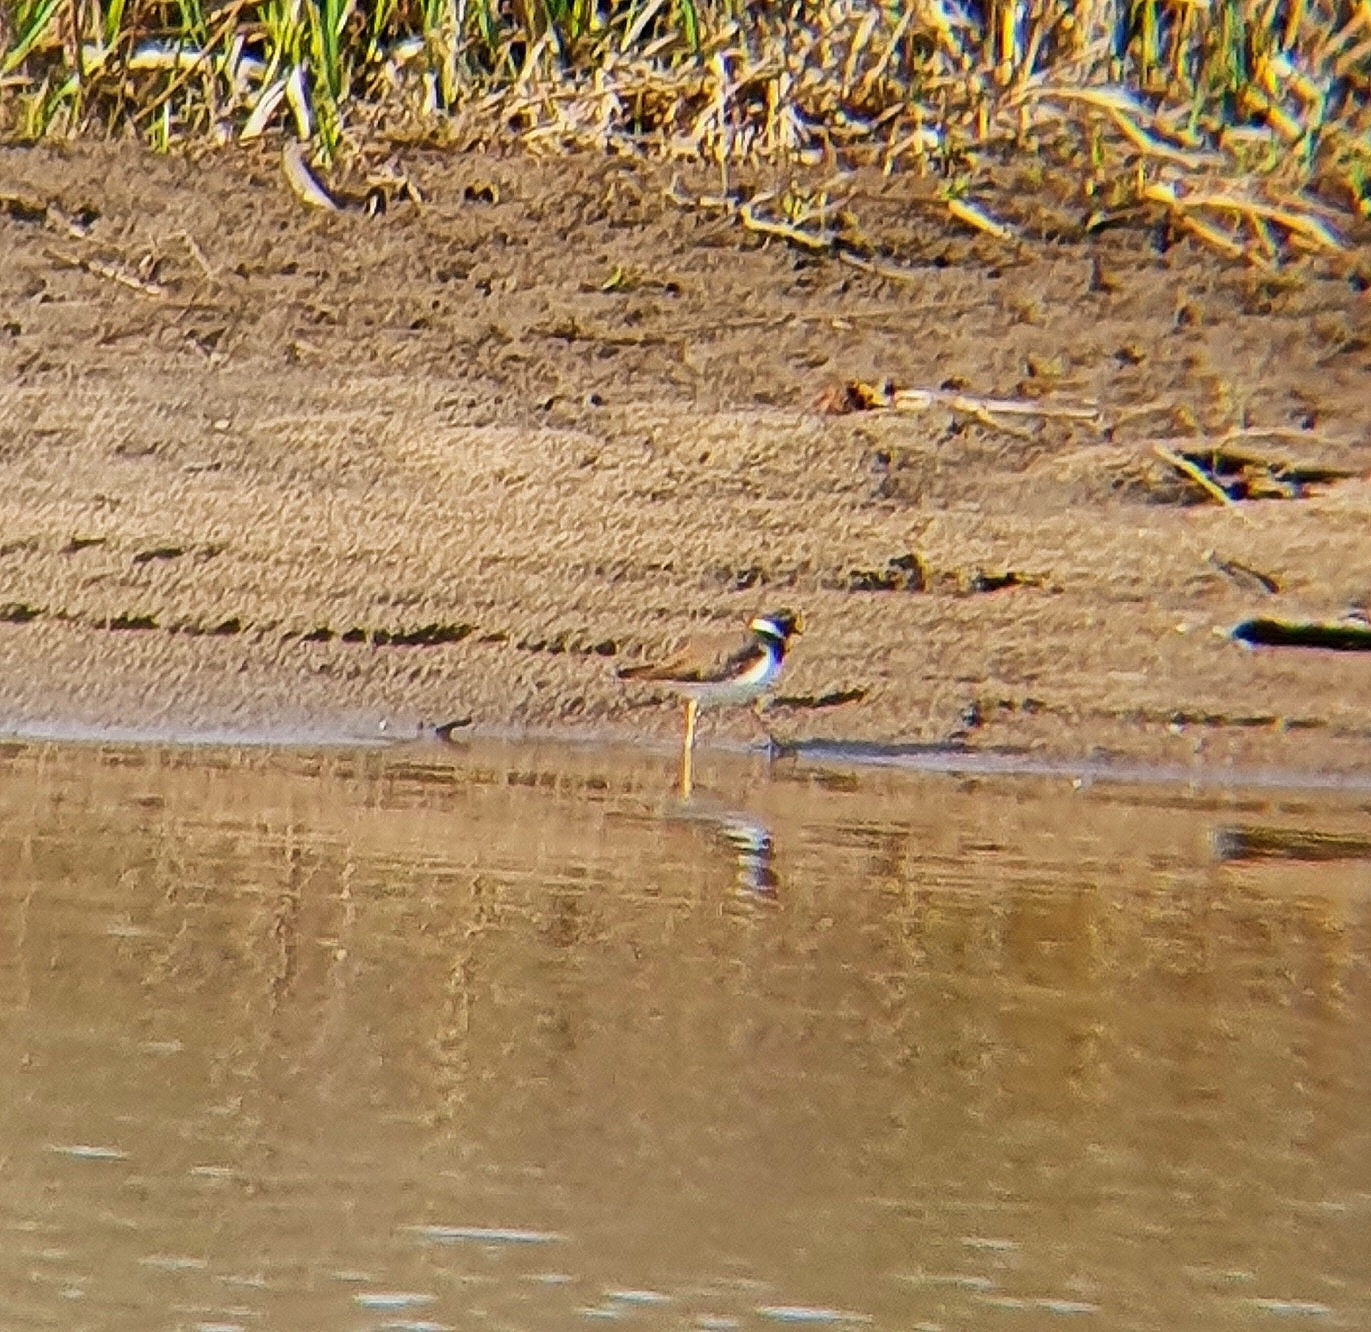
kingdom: Animalia
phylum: Chordata
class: Aves
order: Charadriiformes
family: Charadriidae
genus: Charadrius
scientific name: Charadrius dubius
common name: Little ringed plover
